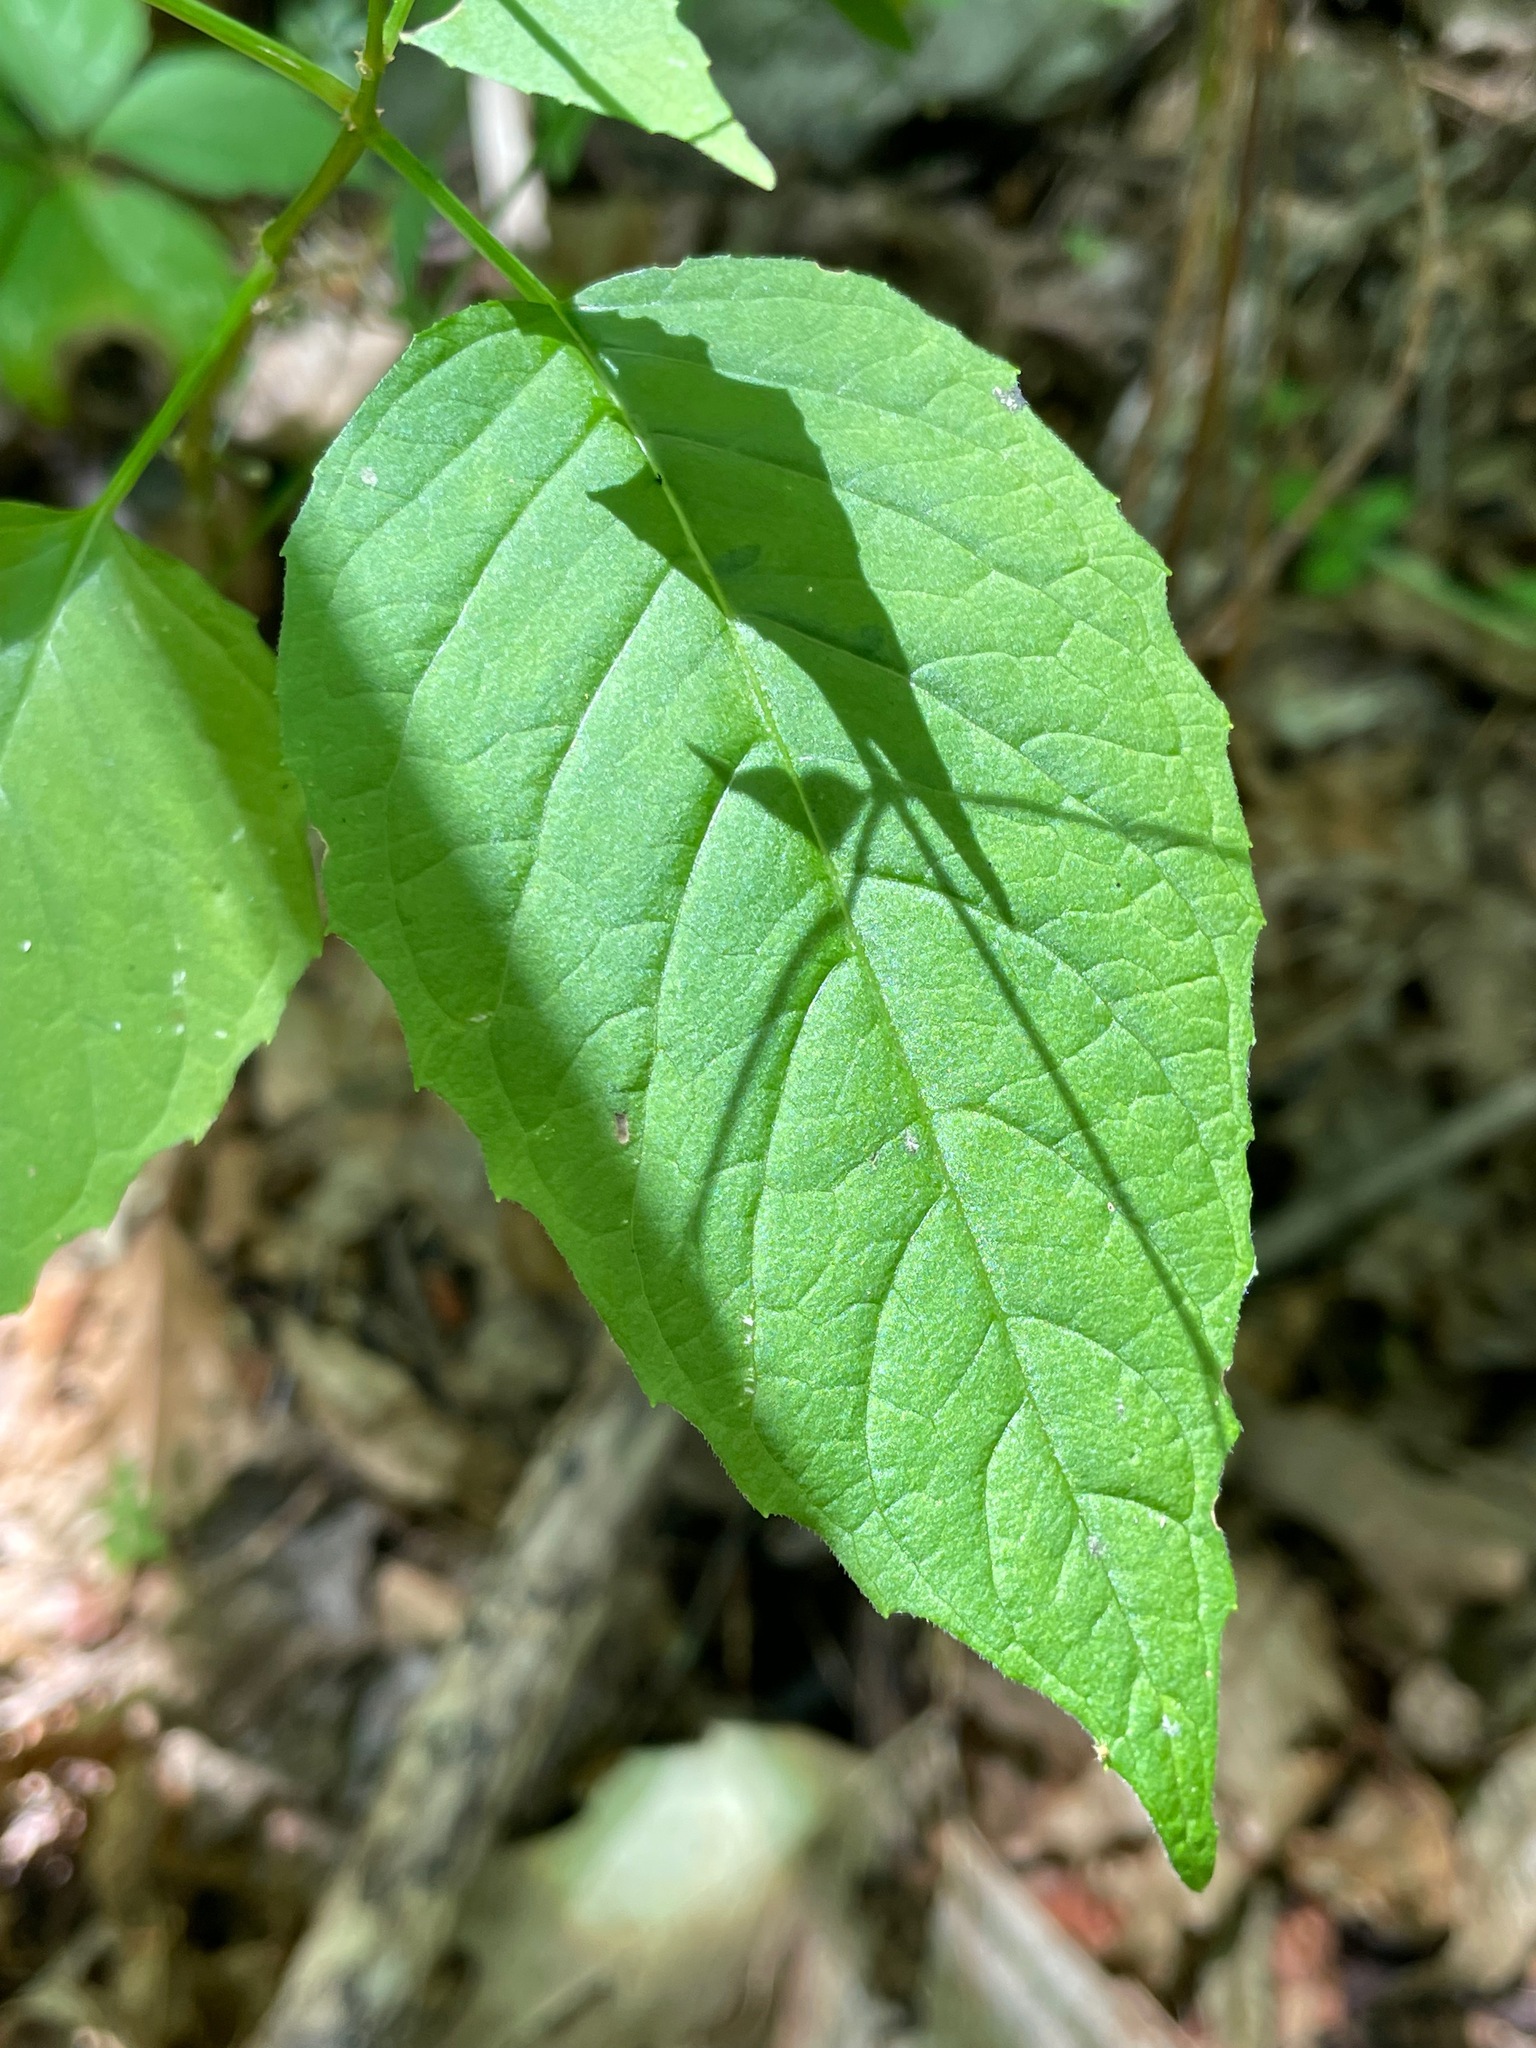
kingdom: Plantae
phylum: Tracheophyta
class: Magnoliopsida
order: Myrtales
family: Onagraceae
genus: Circaea
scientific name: Circaea canadensis
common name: Broad-leaved enchanter's nightshade
